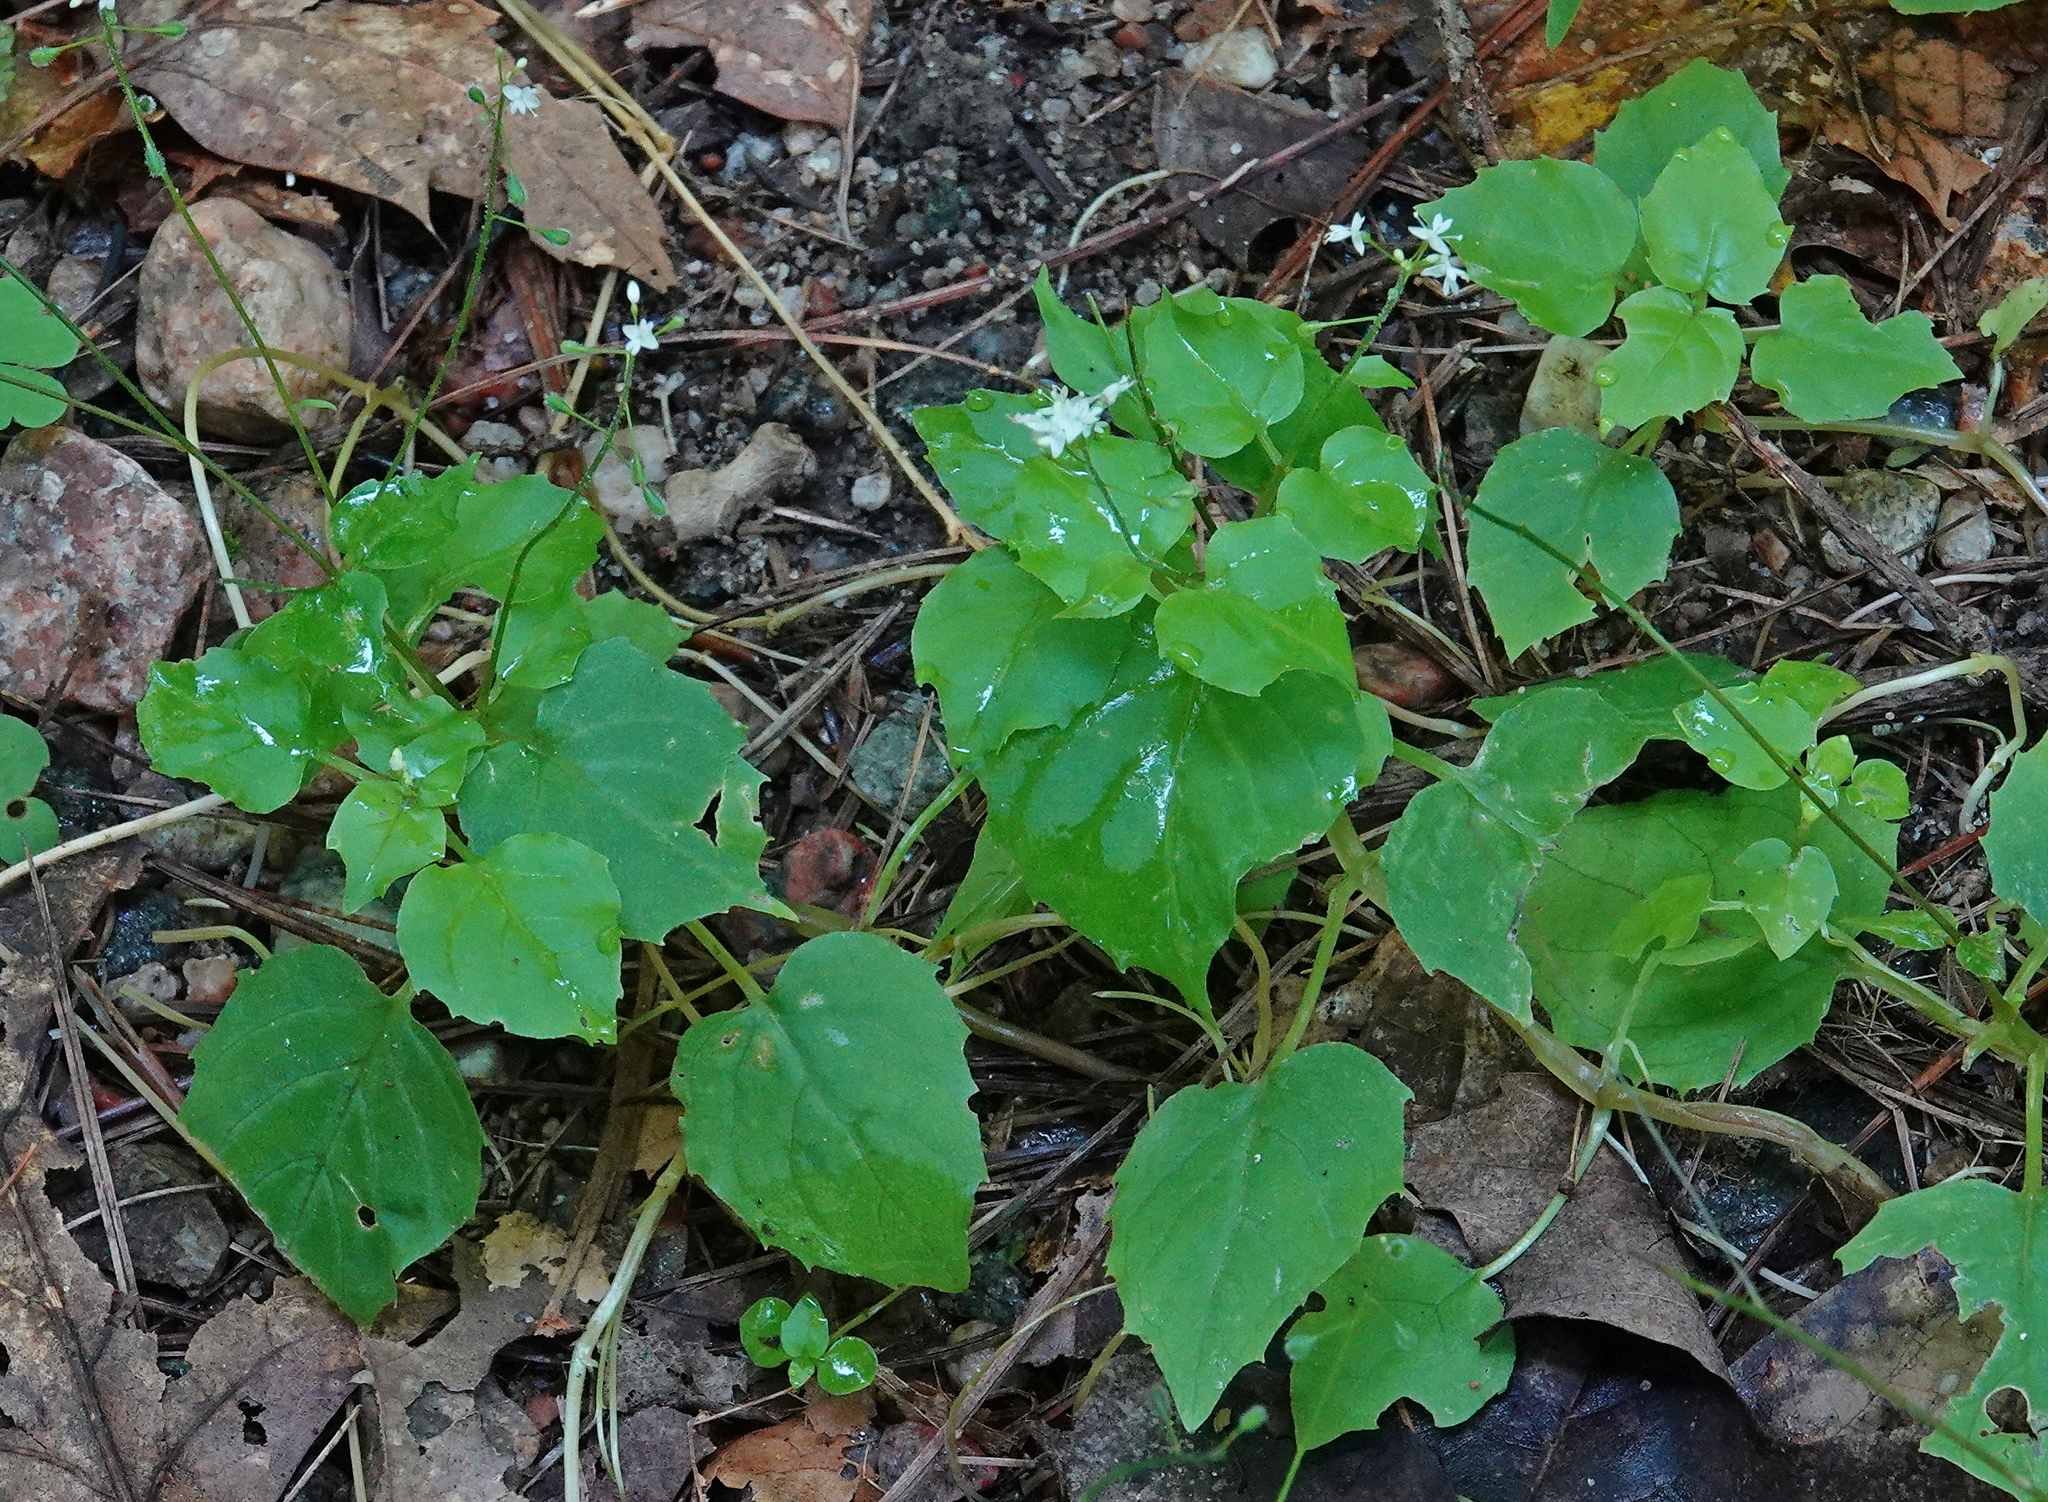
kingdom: Plantae
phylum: Tracheophyta
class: Magnoliopsida
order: Myrtales
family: Onagraceae
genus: Circaea
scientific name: Circaea alpina
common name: Alpine enchanter's-nightshade
